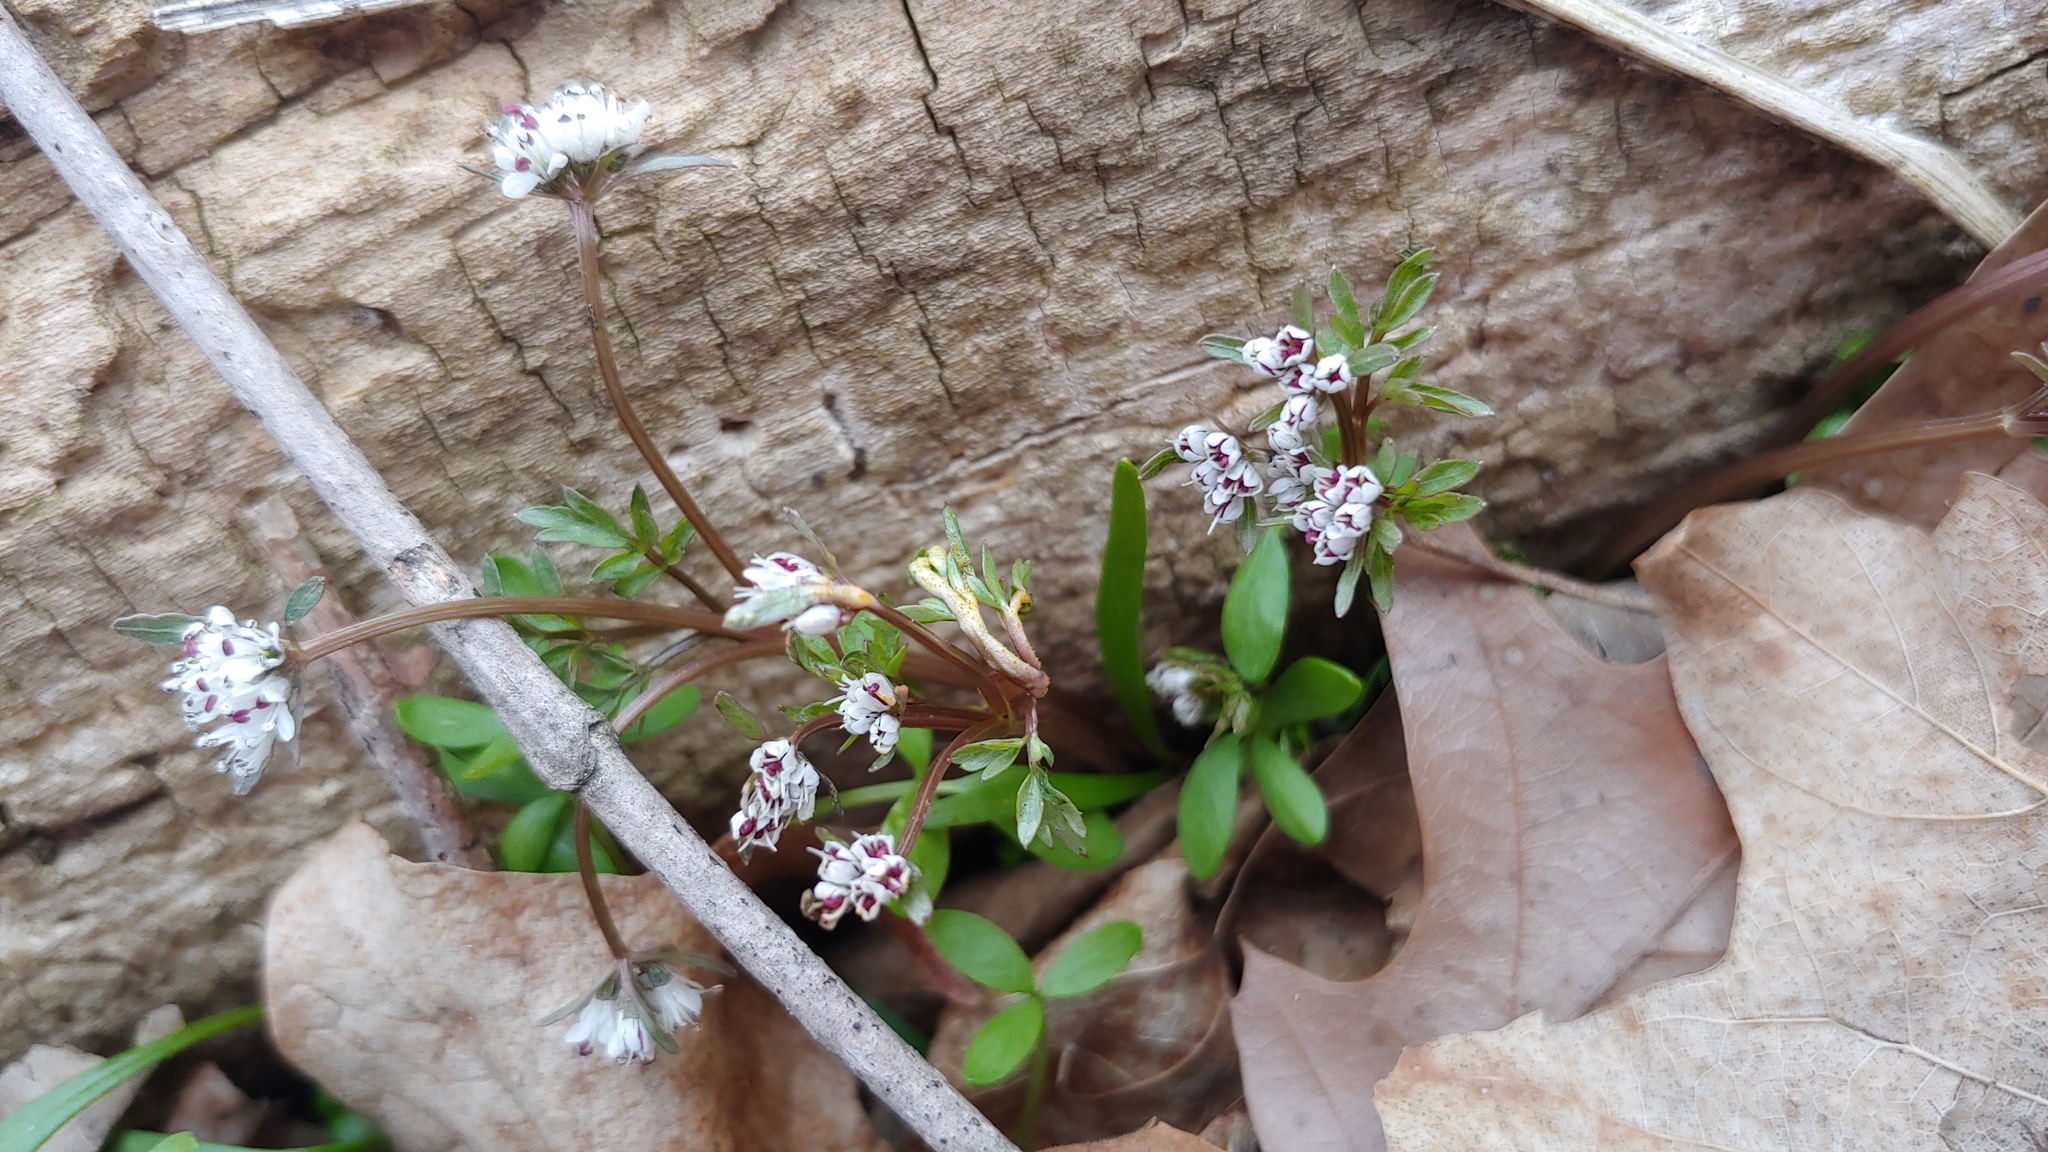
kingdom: Fungi
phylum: Basidiomycota
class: Pucciniomycetes
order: Pucciniales
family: Pucciniaceae
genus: Puccinia
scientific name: Puccinia erigeniae
